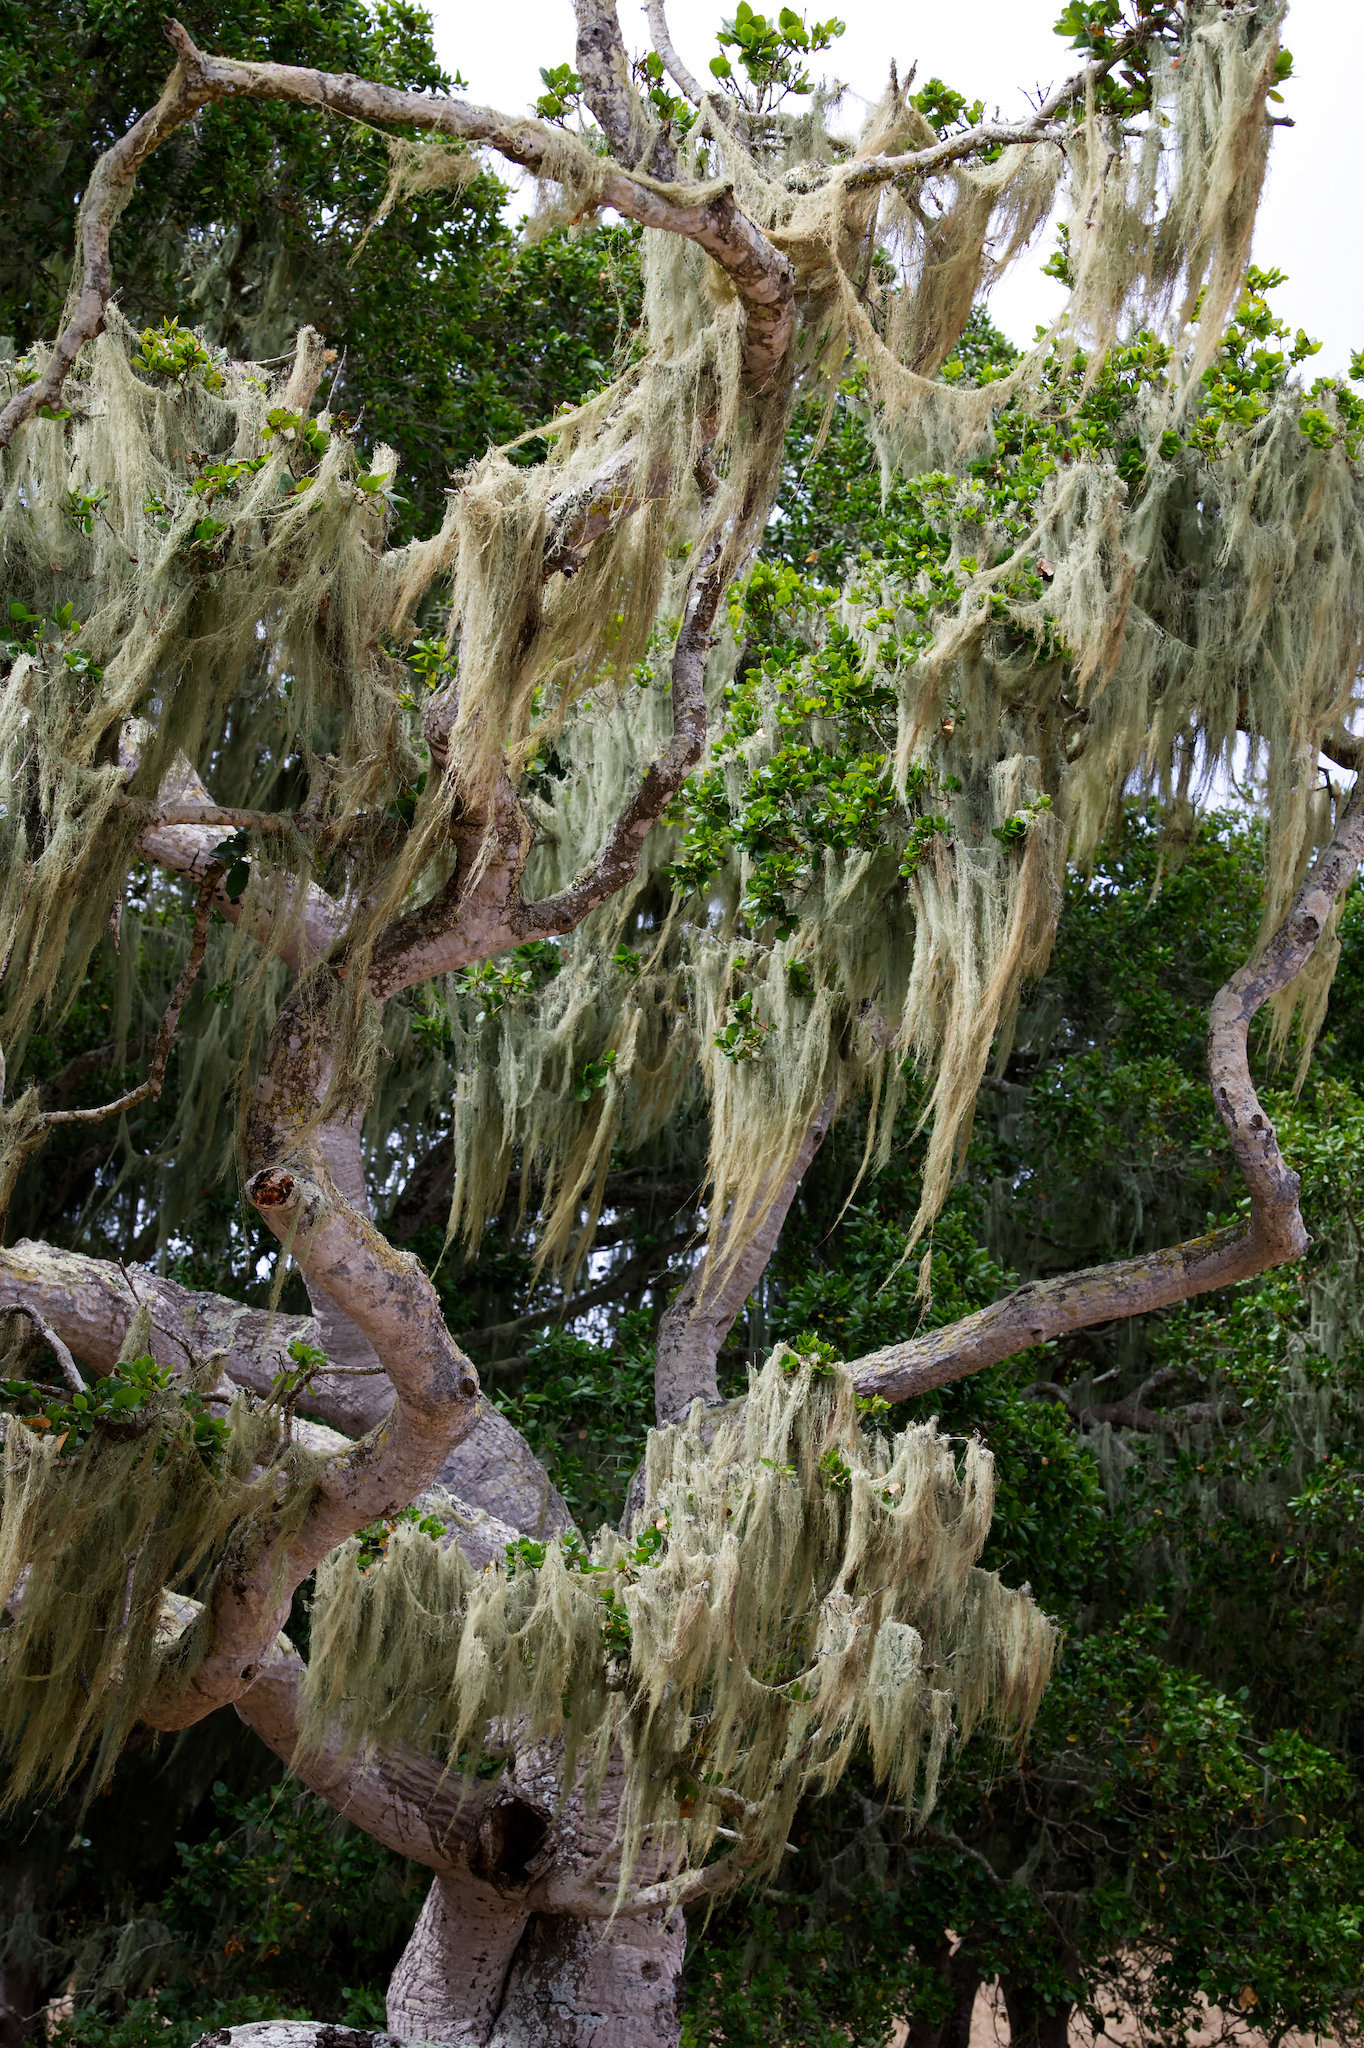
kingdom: Fungi
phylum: Ascomycota
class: Lecanoromycetes
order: Lecanorales
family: Ramalinaceae
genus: Ramalina
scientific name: Ramalina menziesii
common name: Lace lichen
